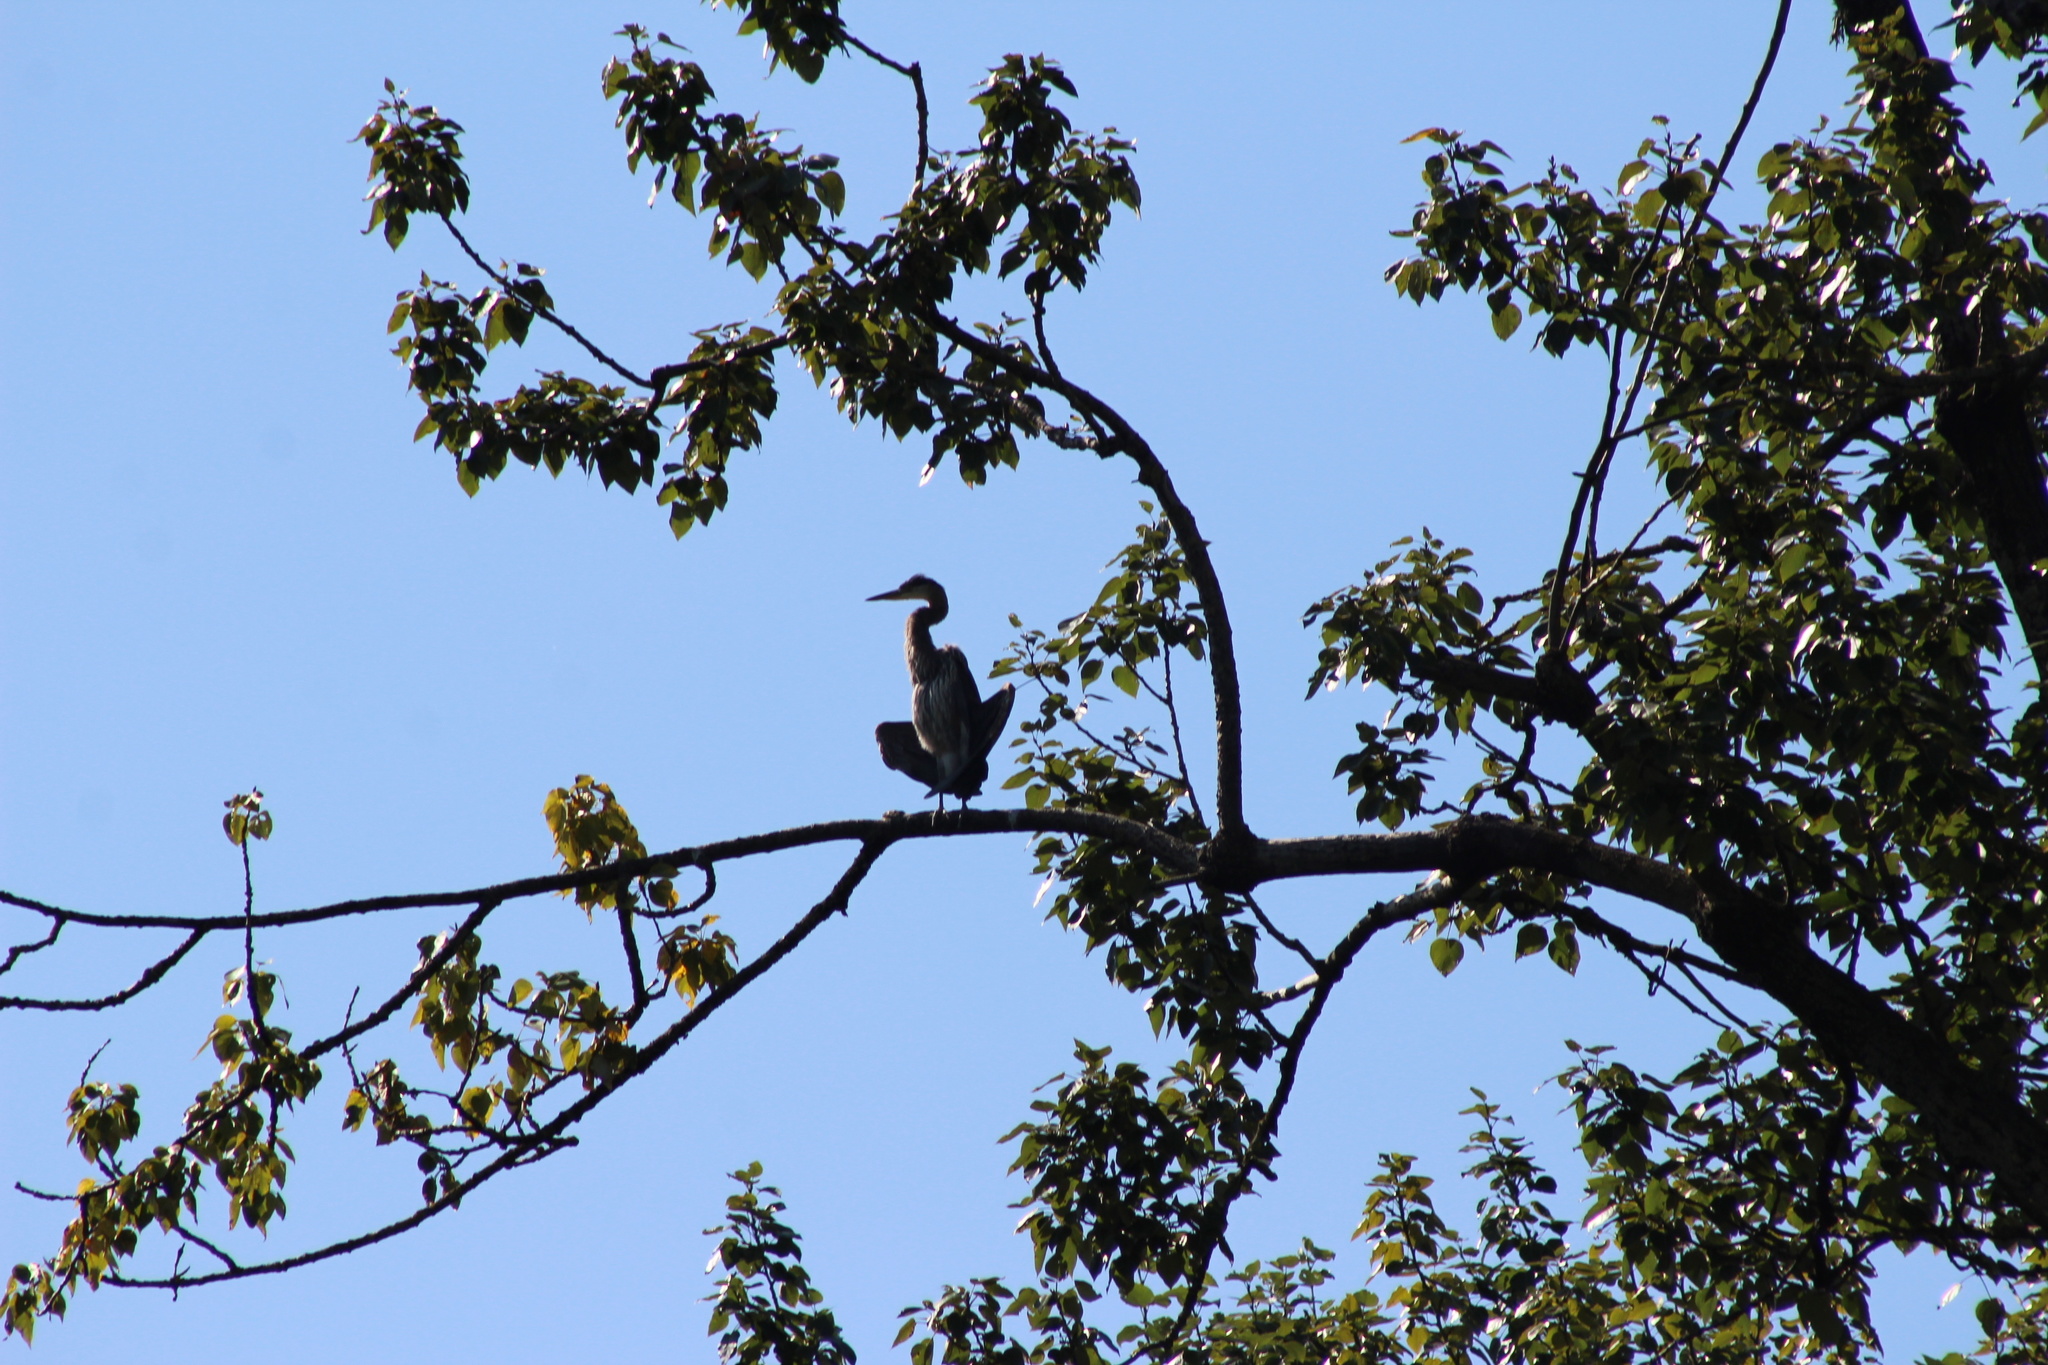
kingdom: Animalia
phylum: Chordata
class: Aves
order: Pelecaniformes
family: Ardeidae
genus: Ardea
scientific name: Ardea herodias
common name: Great blue heron
